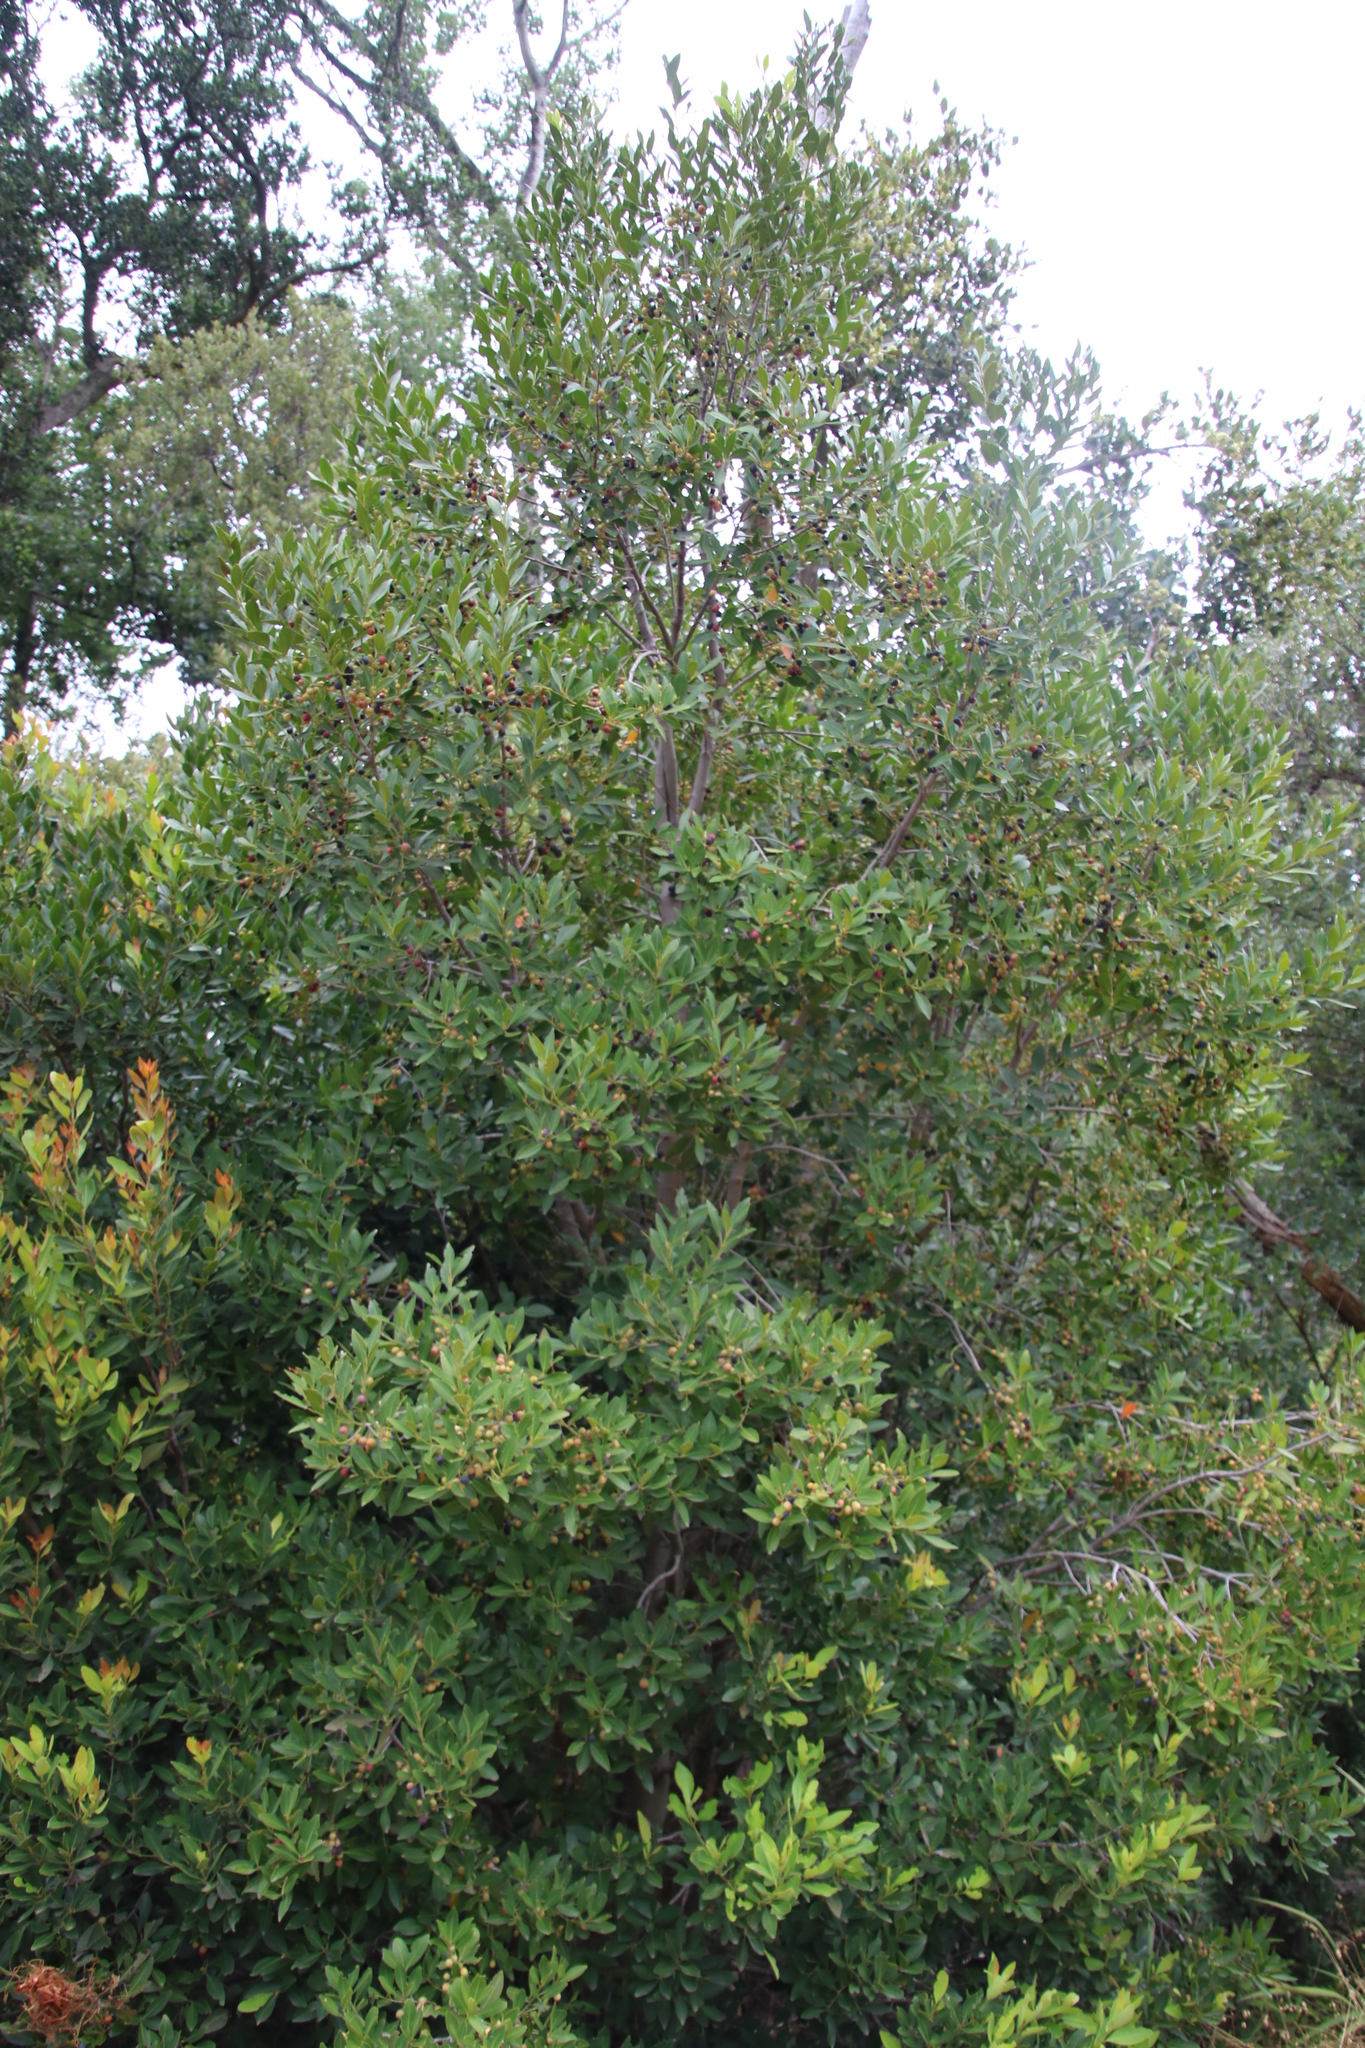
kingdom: Plantae
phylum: Tracheophyta
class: Magnoliopsida
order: Celastrales
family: Celastraceae
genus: Elaeodendron
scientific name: Elaeodendron schinoides
